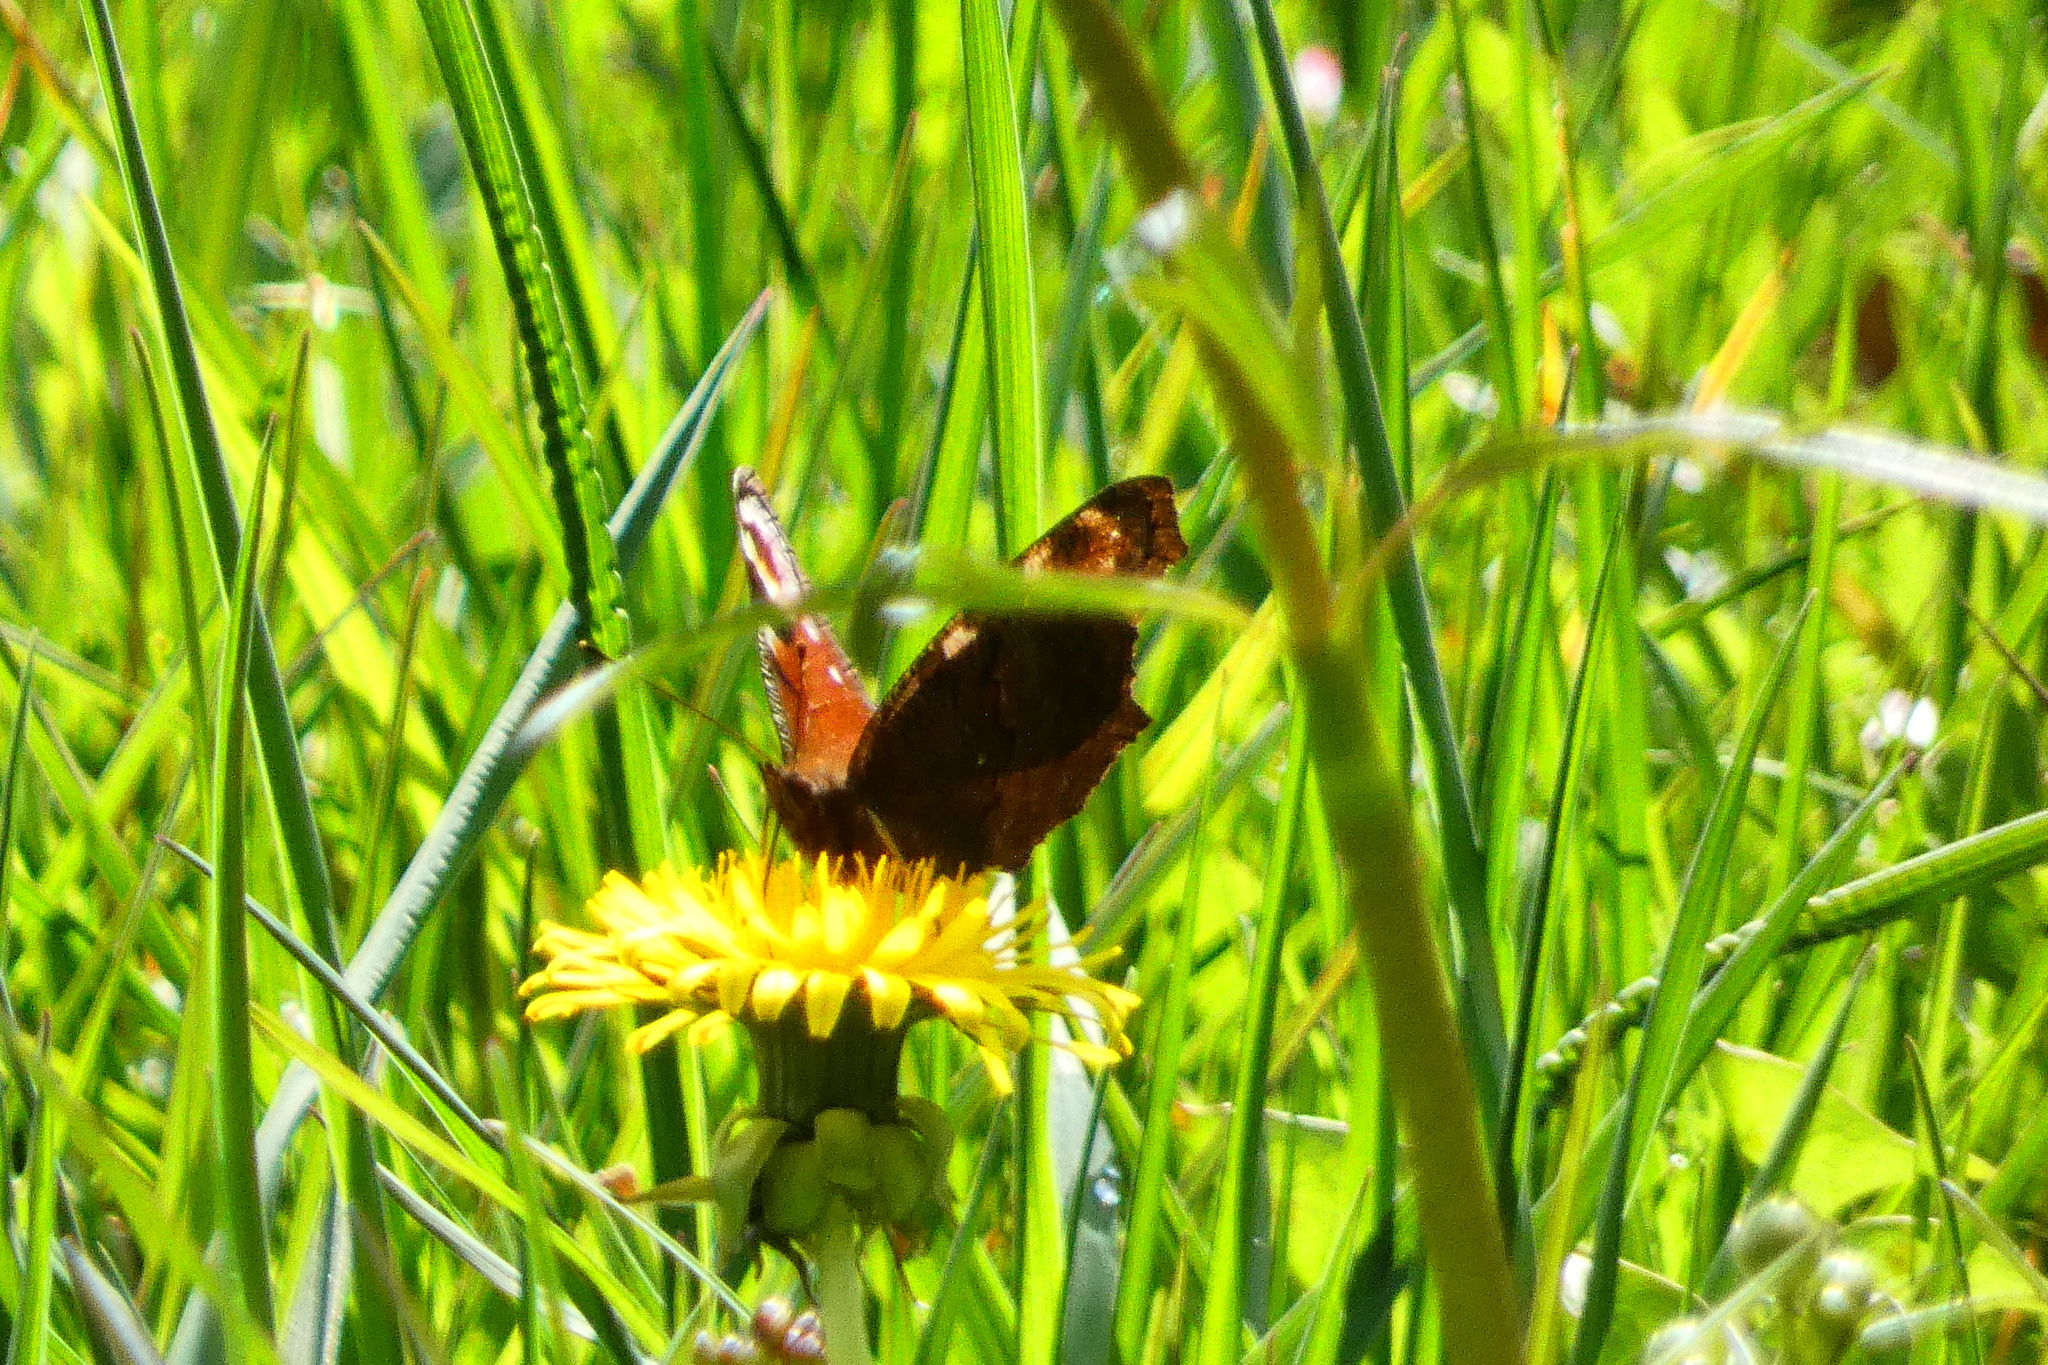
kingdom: Animalia
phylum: Arthropoda
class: Insecta
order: Lepidoptera
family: Nymphalidae
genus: Aglais
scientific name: Aglais io
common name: Peacock
